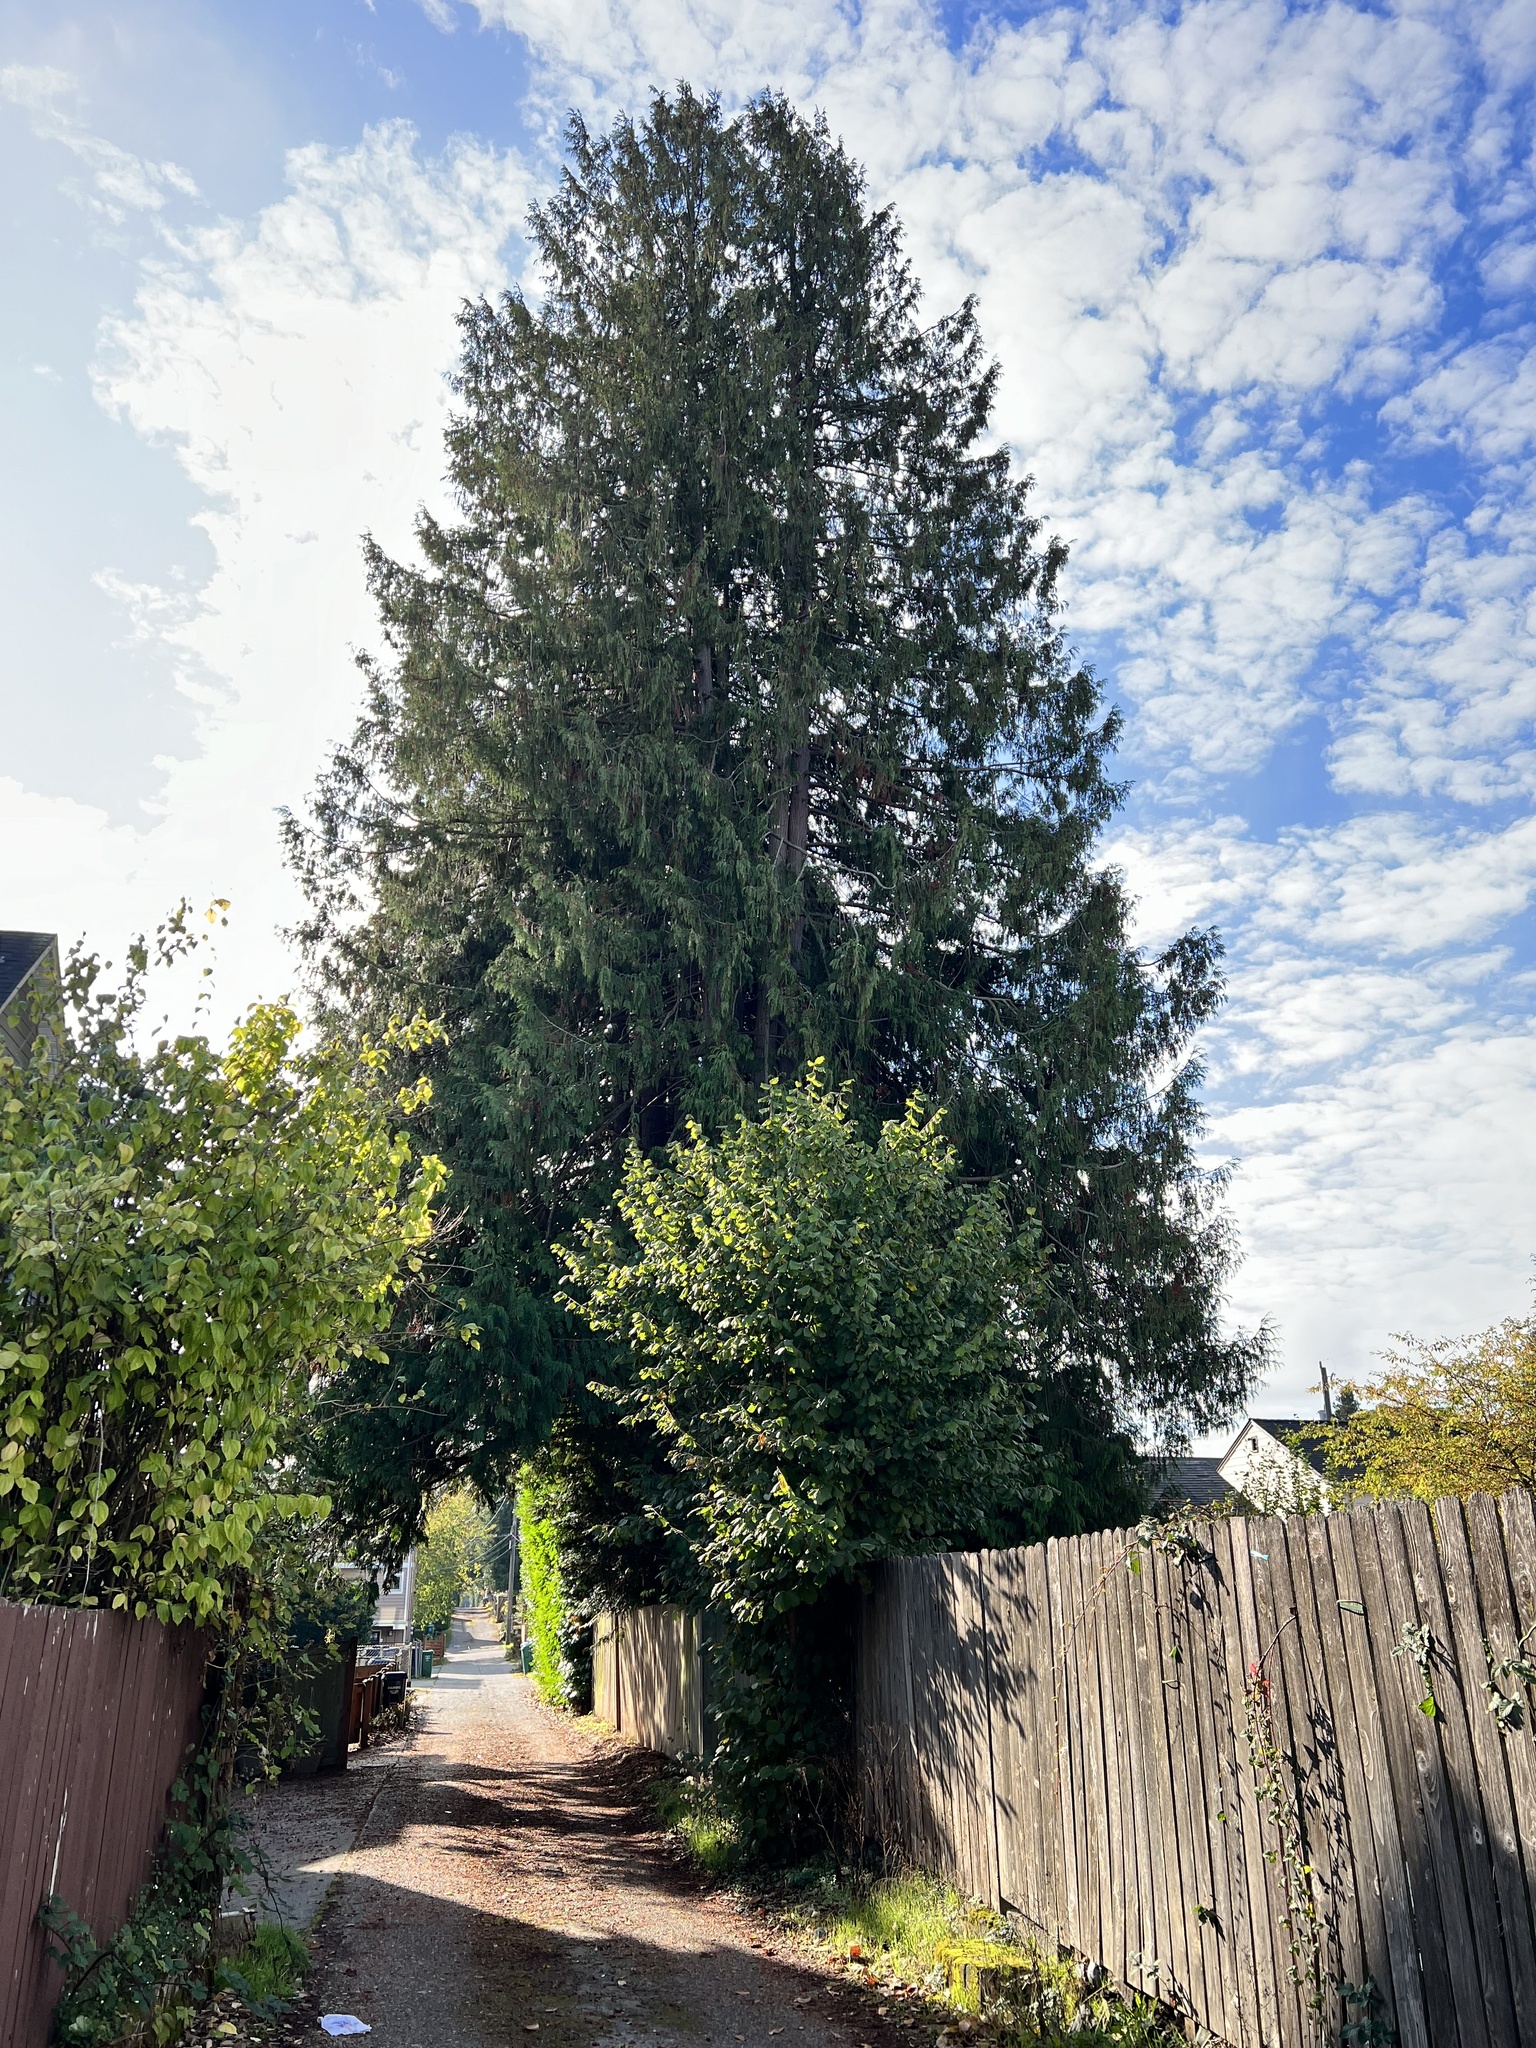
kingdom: Plantae
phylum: Tracheophyta
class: Pinopsida
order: Pinales
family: Cupressaceae
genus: Thuja
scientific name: Thuja plicata
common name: Western red-cedar
